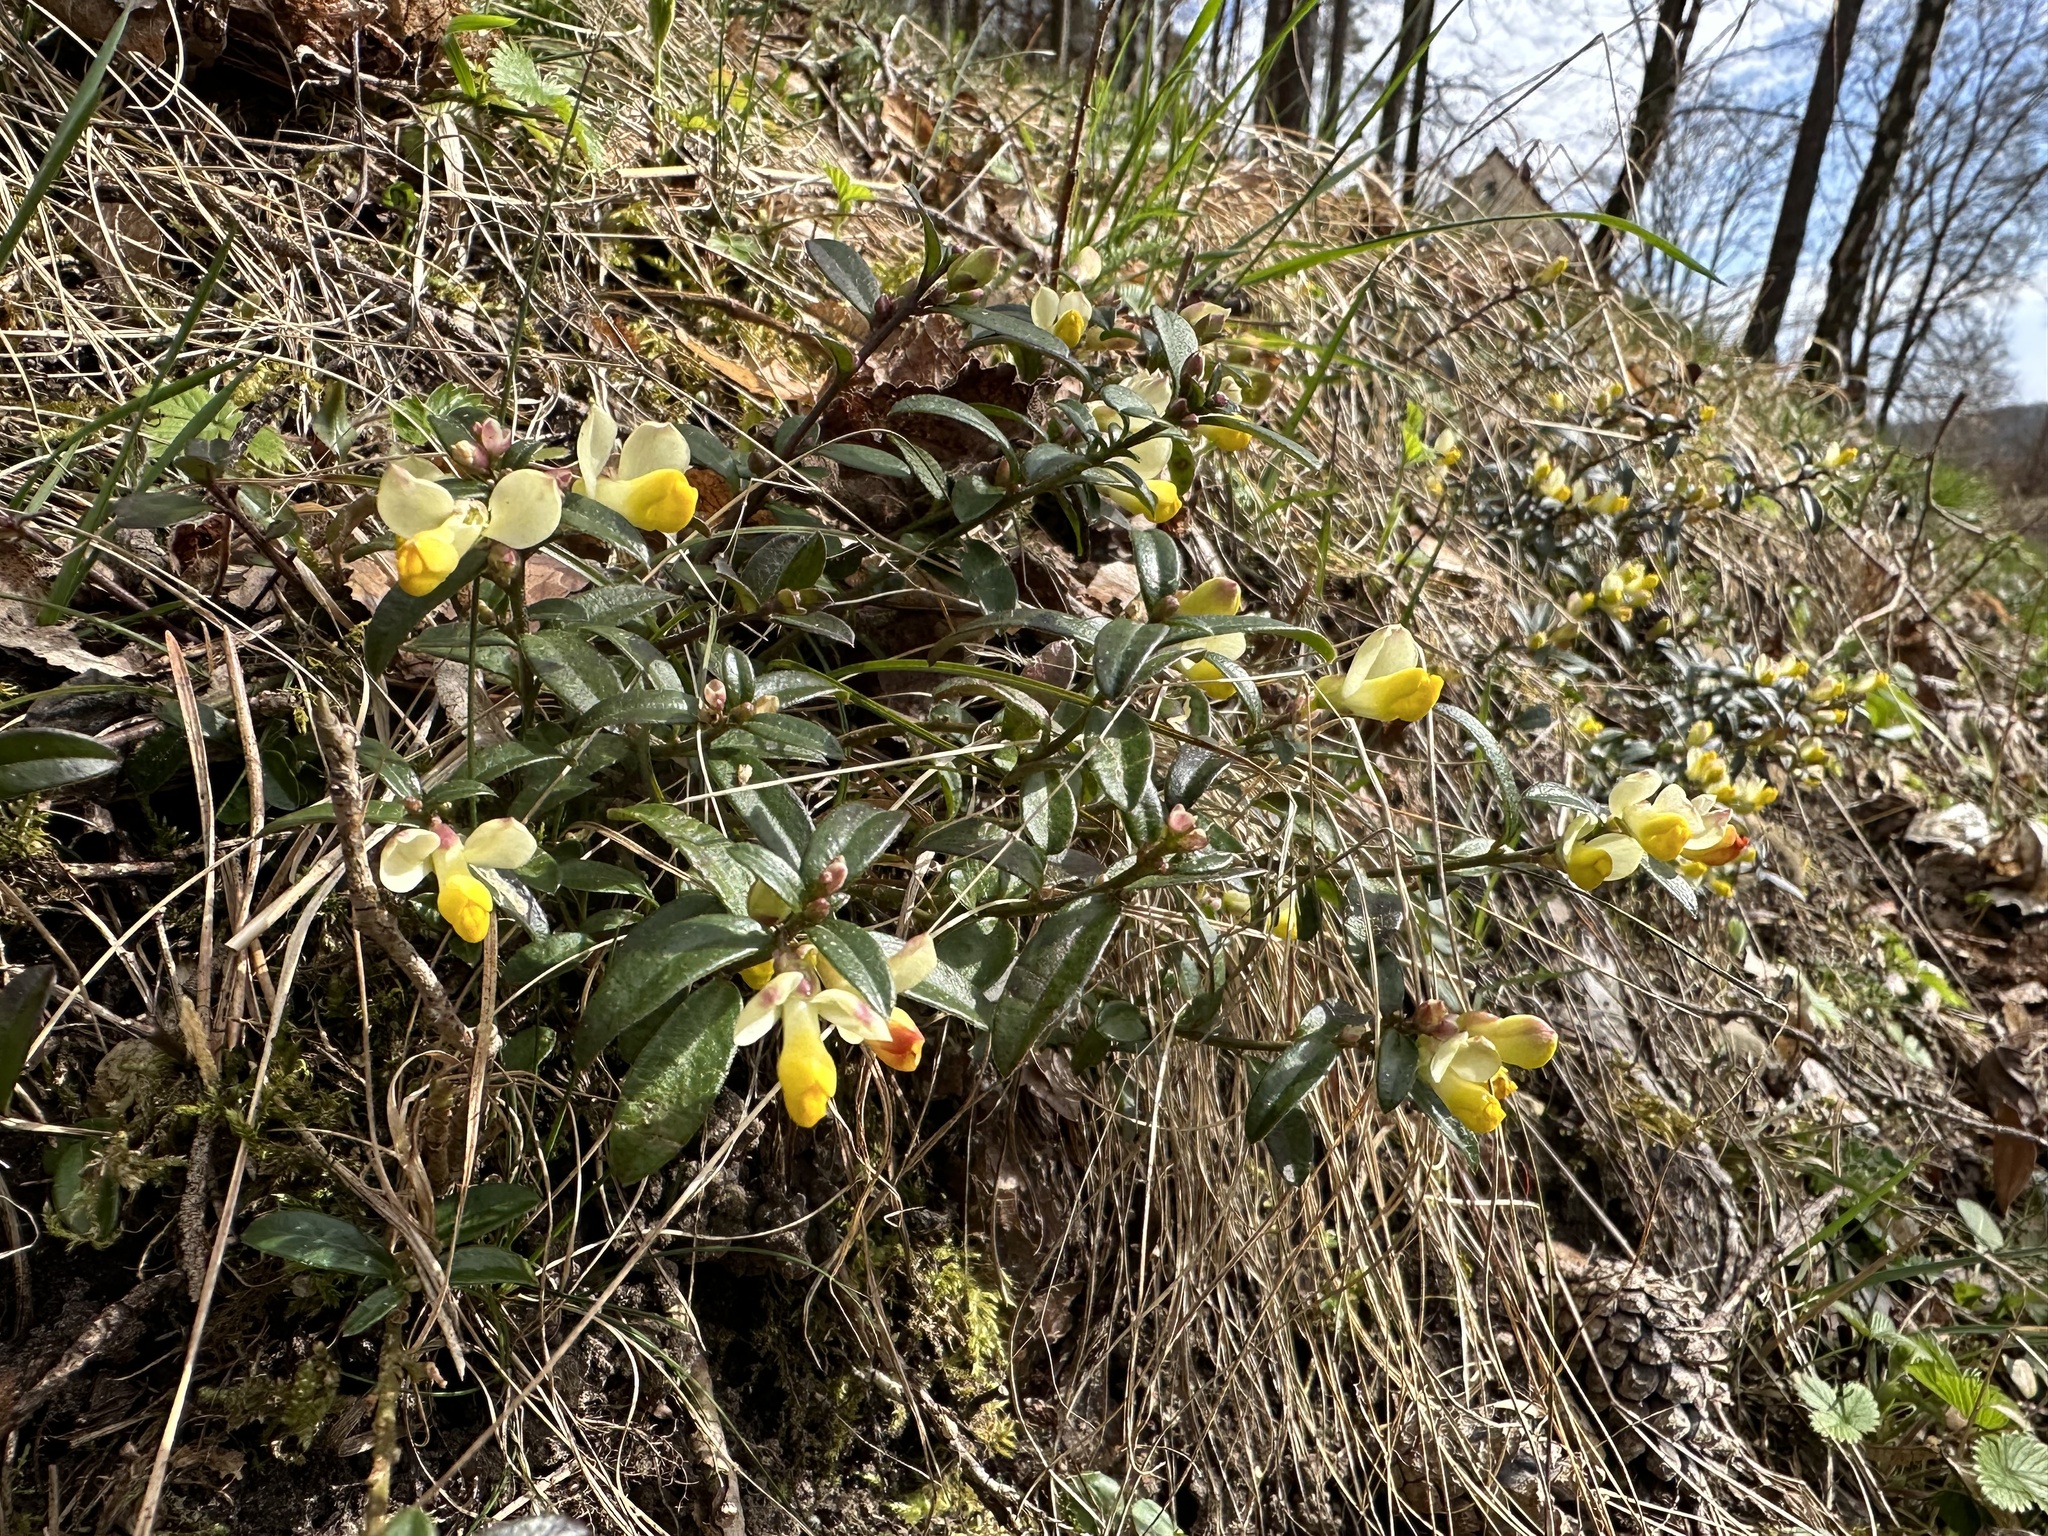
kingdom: Plantae
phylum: Tracheophyta
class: Magnoliopsida
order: Fabales
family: Polygalaceae
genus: Polygaloides
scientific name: Polygaloides chamaebuxus
